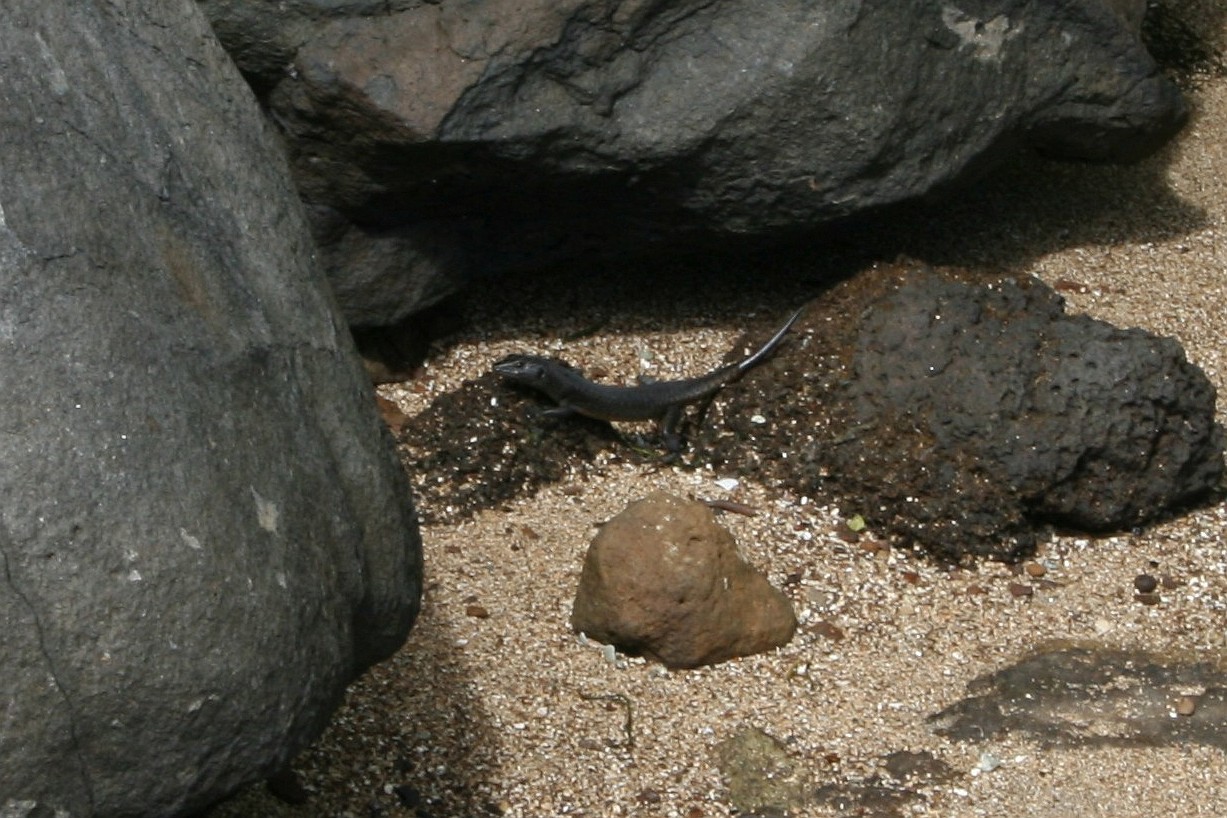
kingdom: Animalia
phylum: Chordata
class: Squamata
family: Scincidae
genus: Emoia
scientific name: Emoia nigra
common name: Black emo skink
